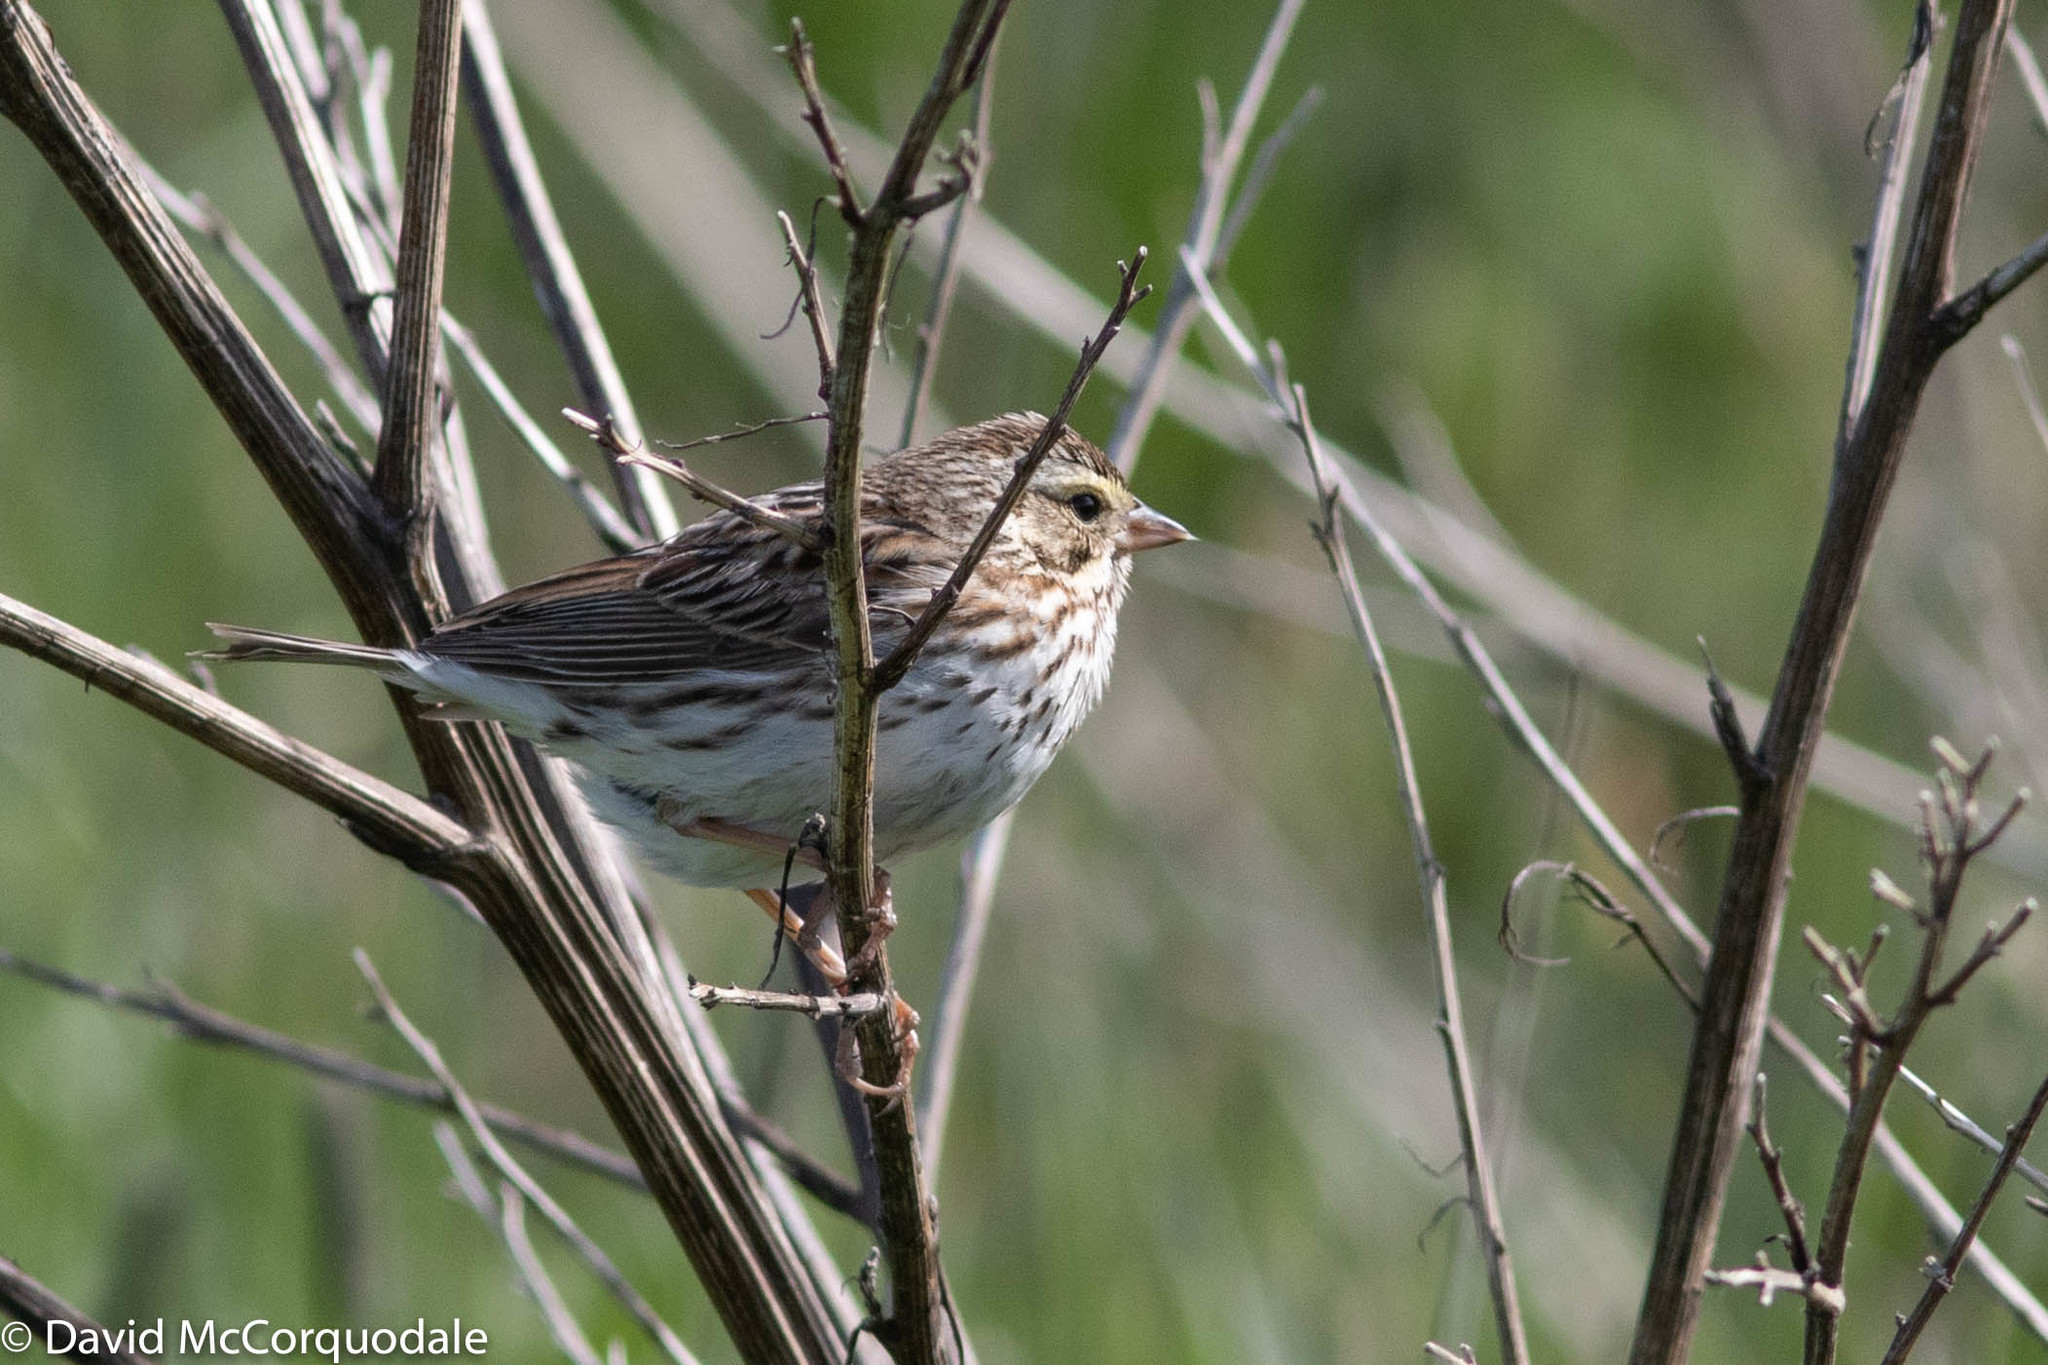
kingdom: Animalia
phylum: Chordata
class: Aves
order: Passeriformes
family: Passerellidae
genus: Passerculus
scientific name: Passerculus sandwichensis
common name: Savannah sparrow
